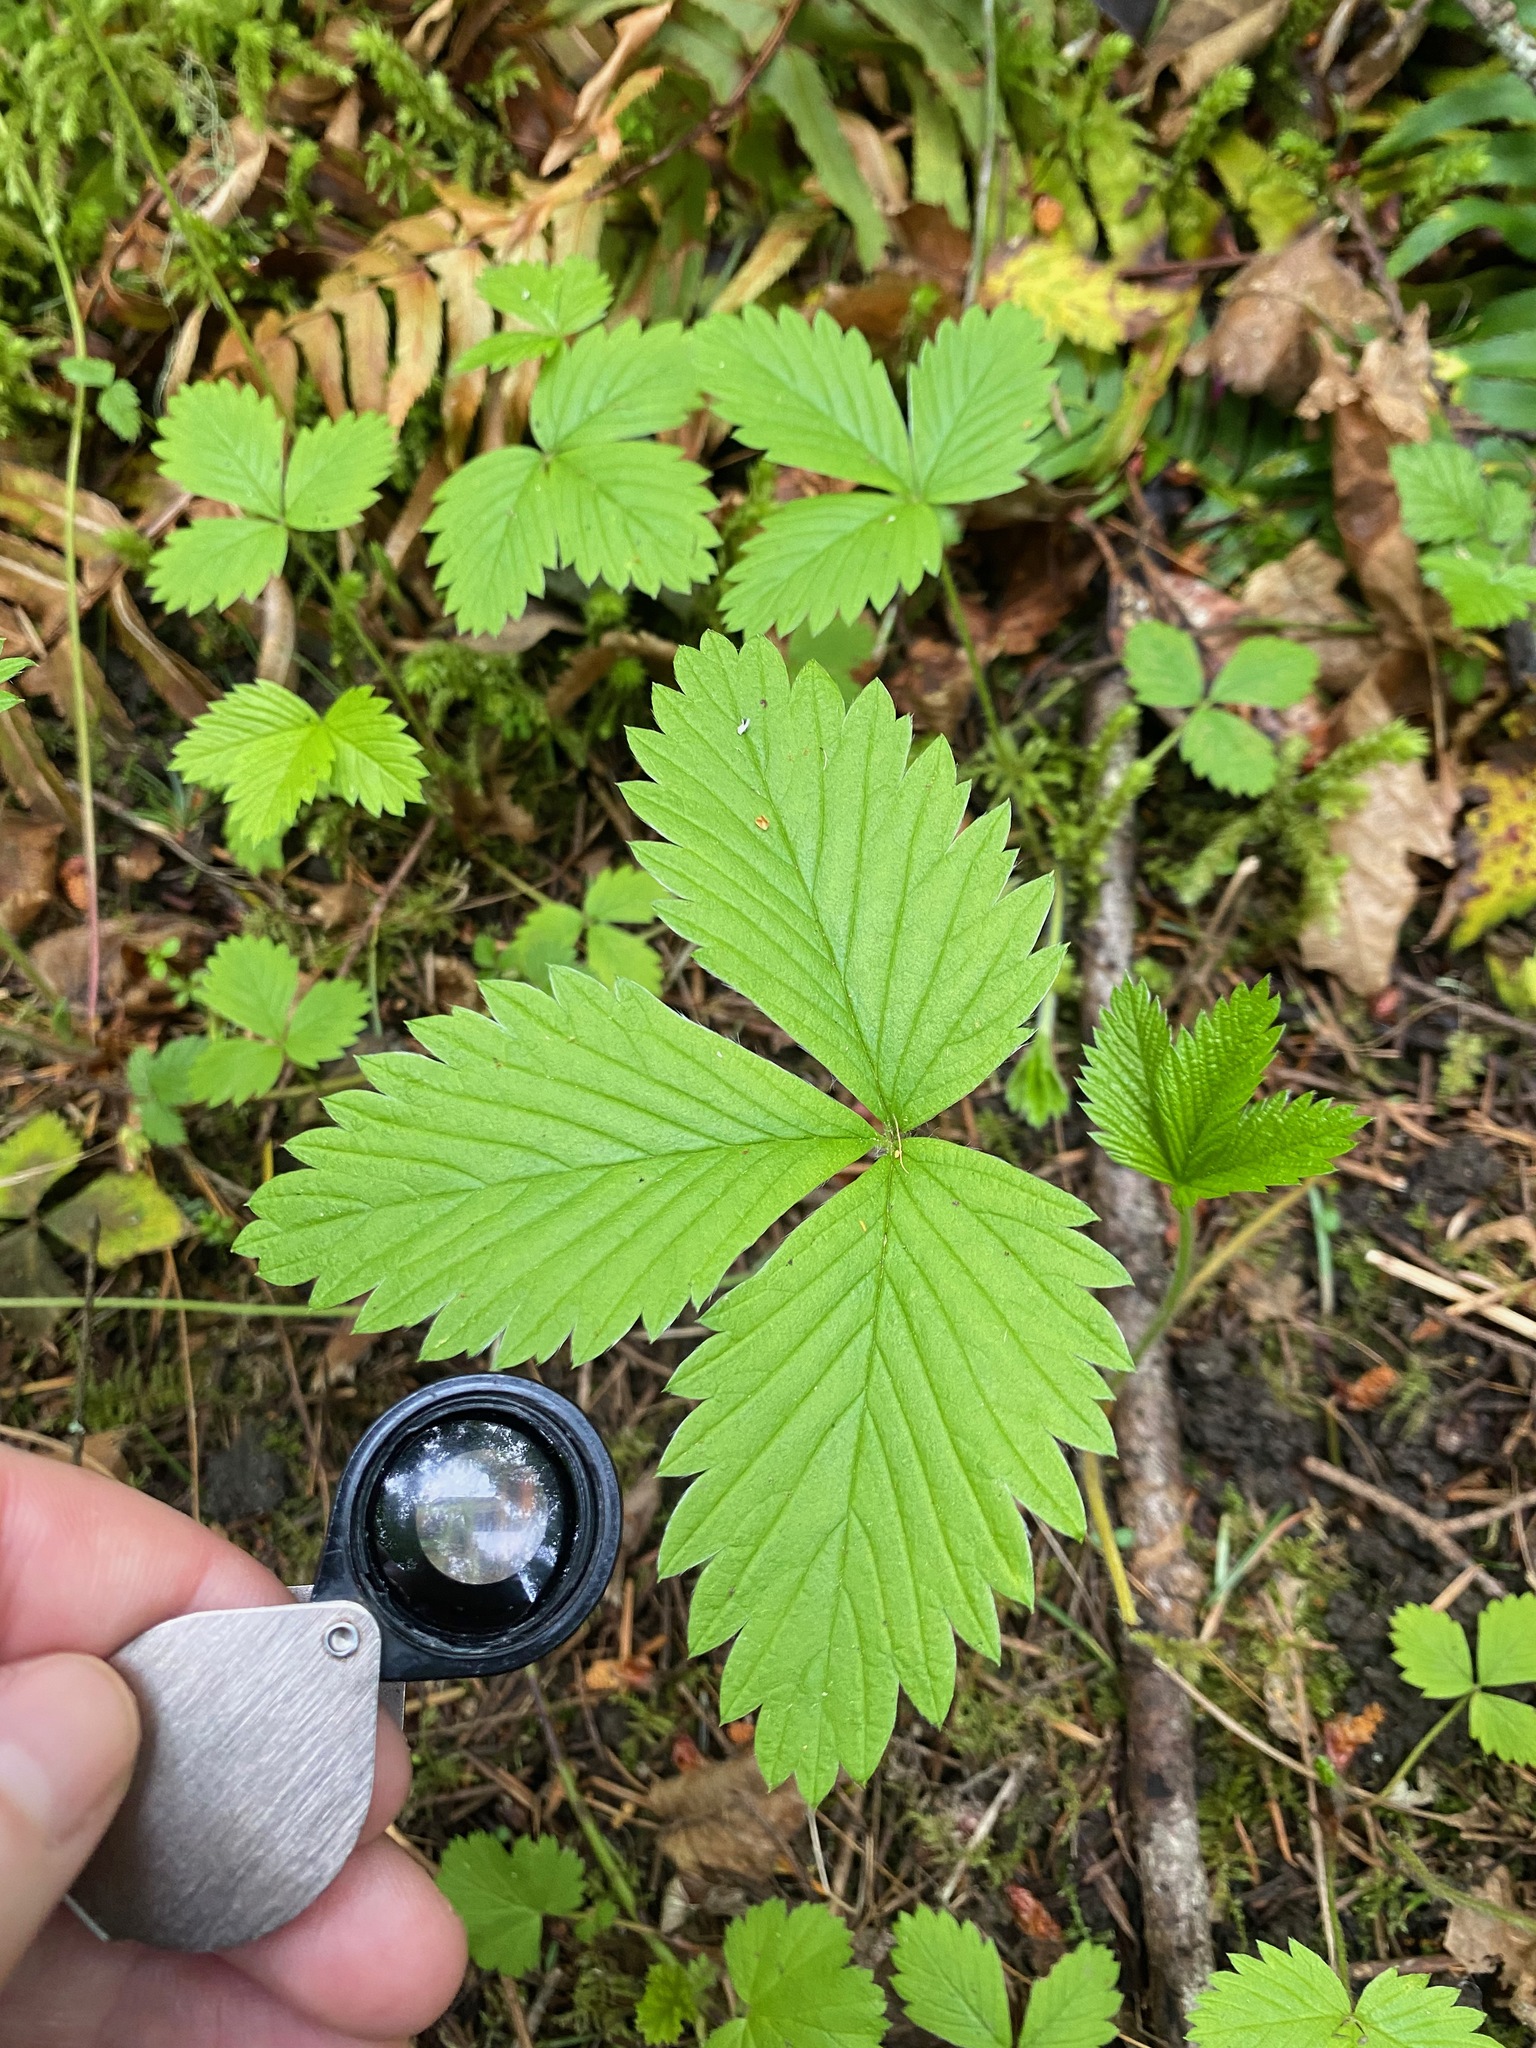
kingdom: Plantae
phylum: Tracheophyta
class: Magnoliopsida
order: Rosales
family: Rosaceae
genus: Fragaria
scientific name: Fragaria vesca
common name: Wild strawberry
